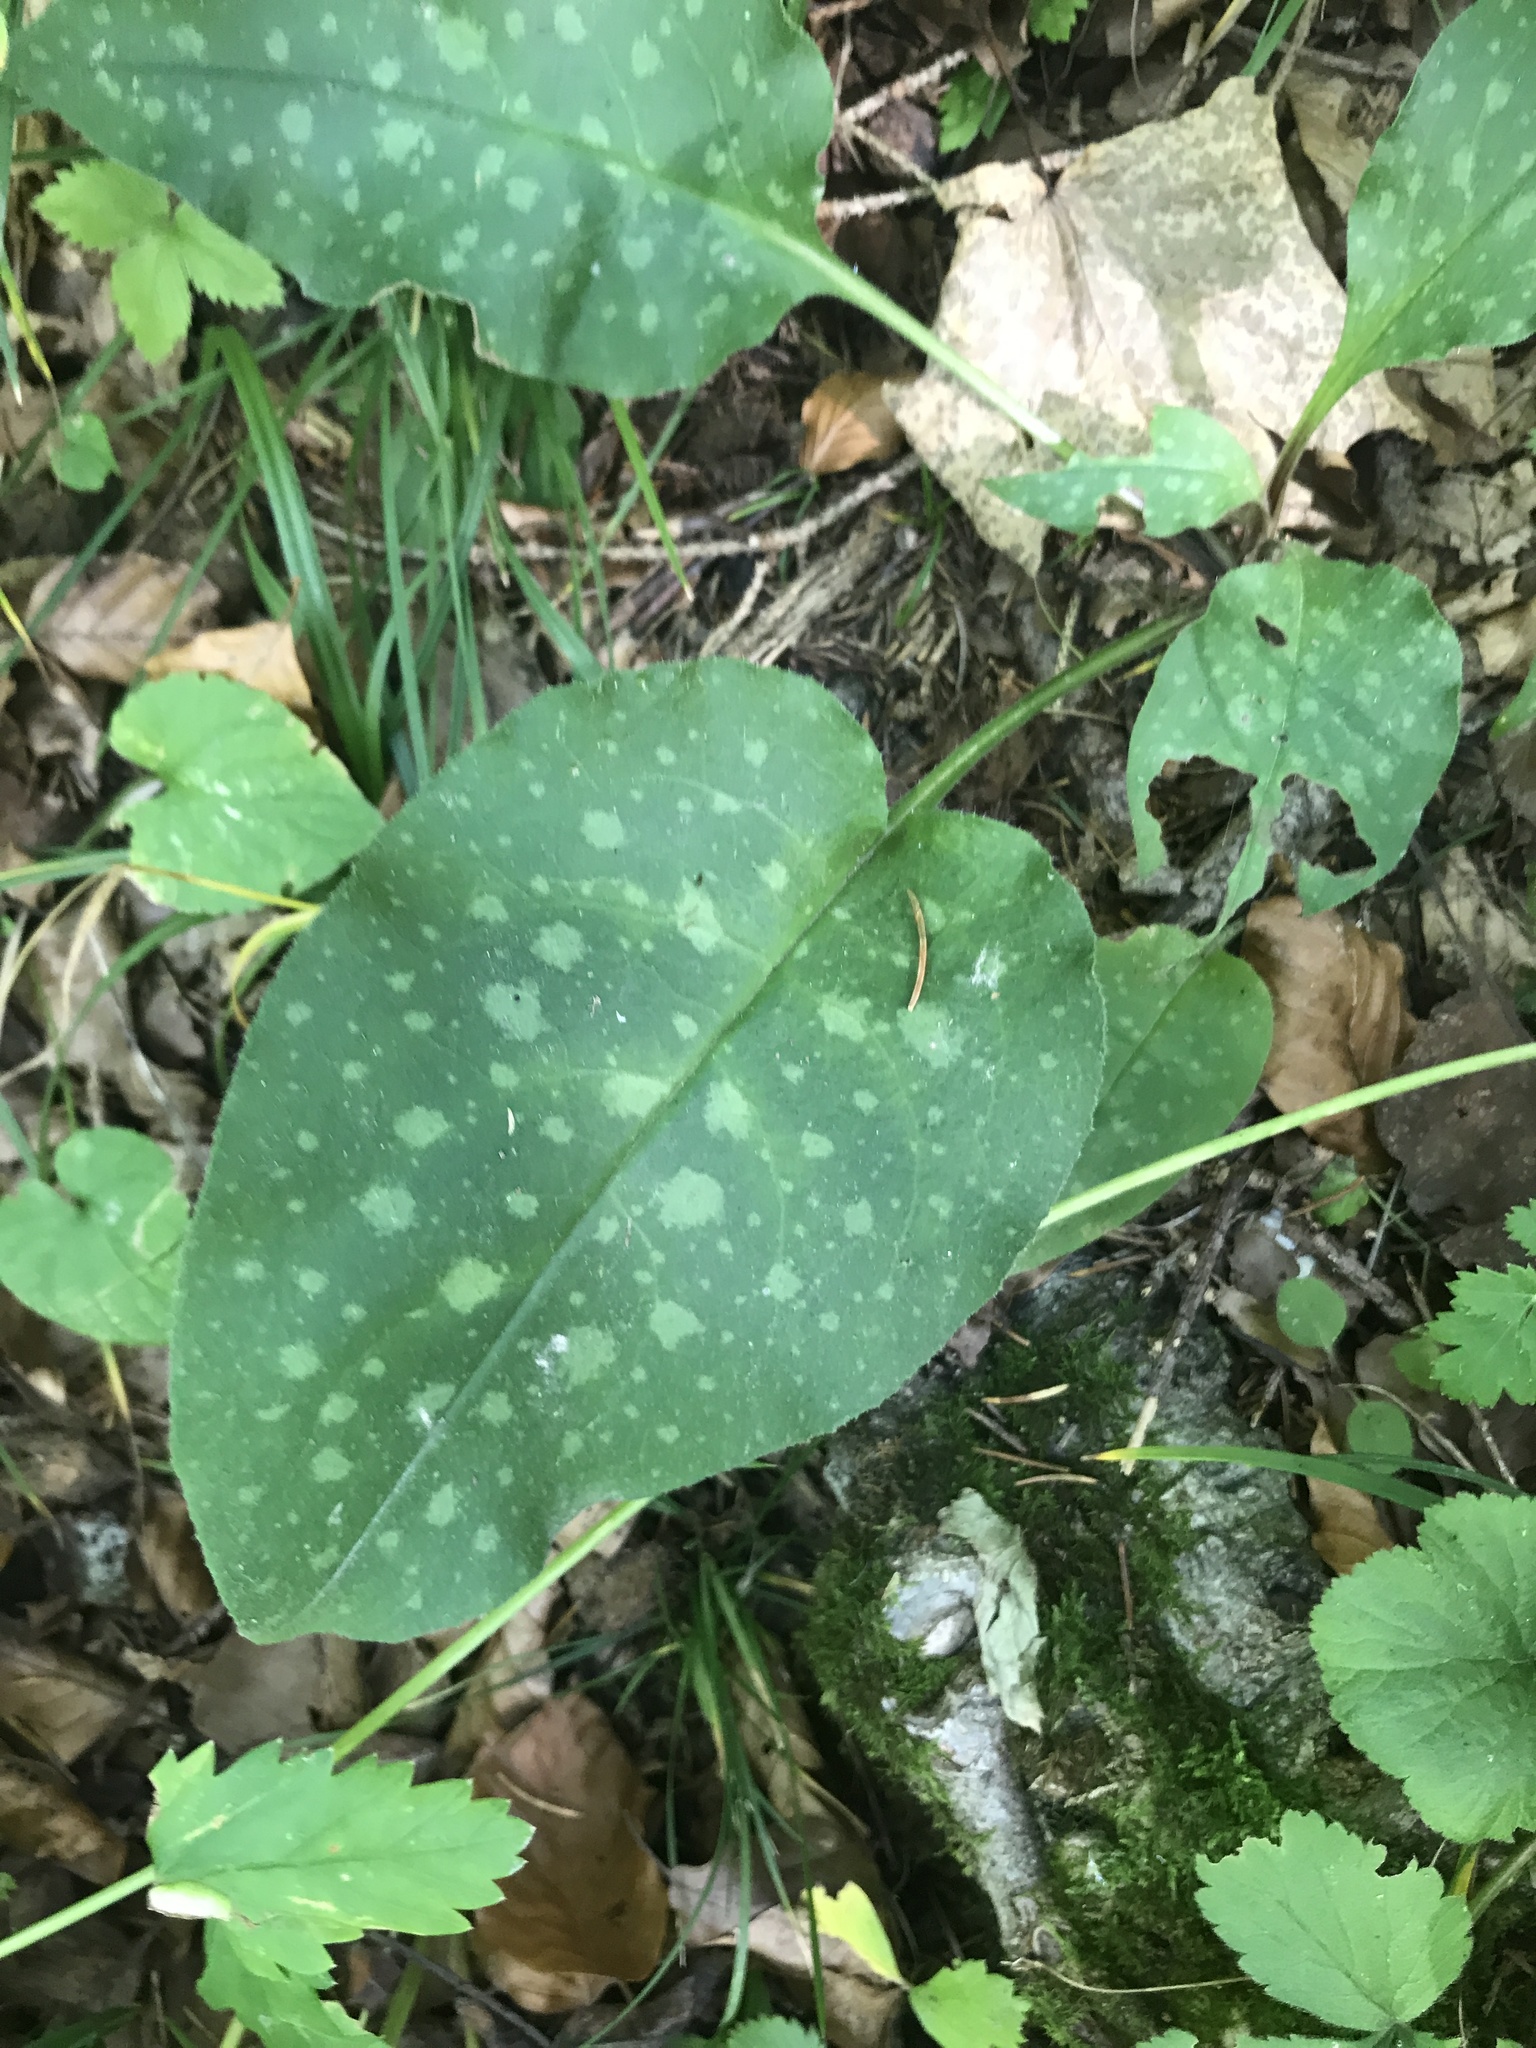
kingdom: Plantae
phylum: Tracheophyta
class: Magnoliopsida
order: Boraginales
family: Boraginaceae
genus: Pulmonaria
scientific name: Pulmonaria officinalis
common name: Lungwort
